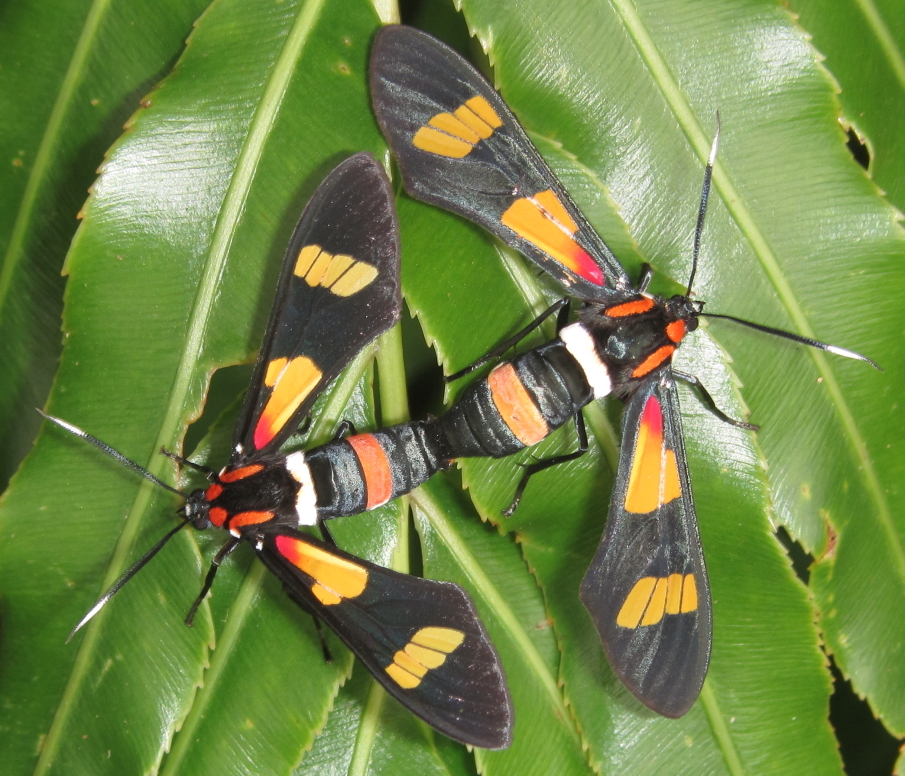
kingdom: Animalia
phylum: Arthropoda
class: Insecta
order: Lepidoptera
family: Erebidae
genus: Euchromia
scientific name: Euchromia amoena
